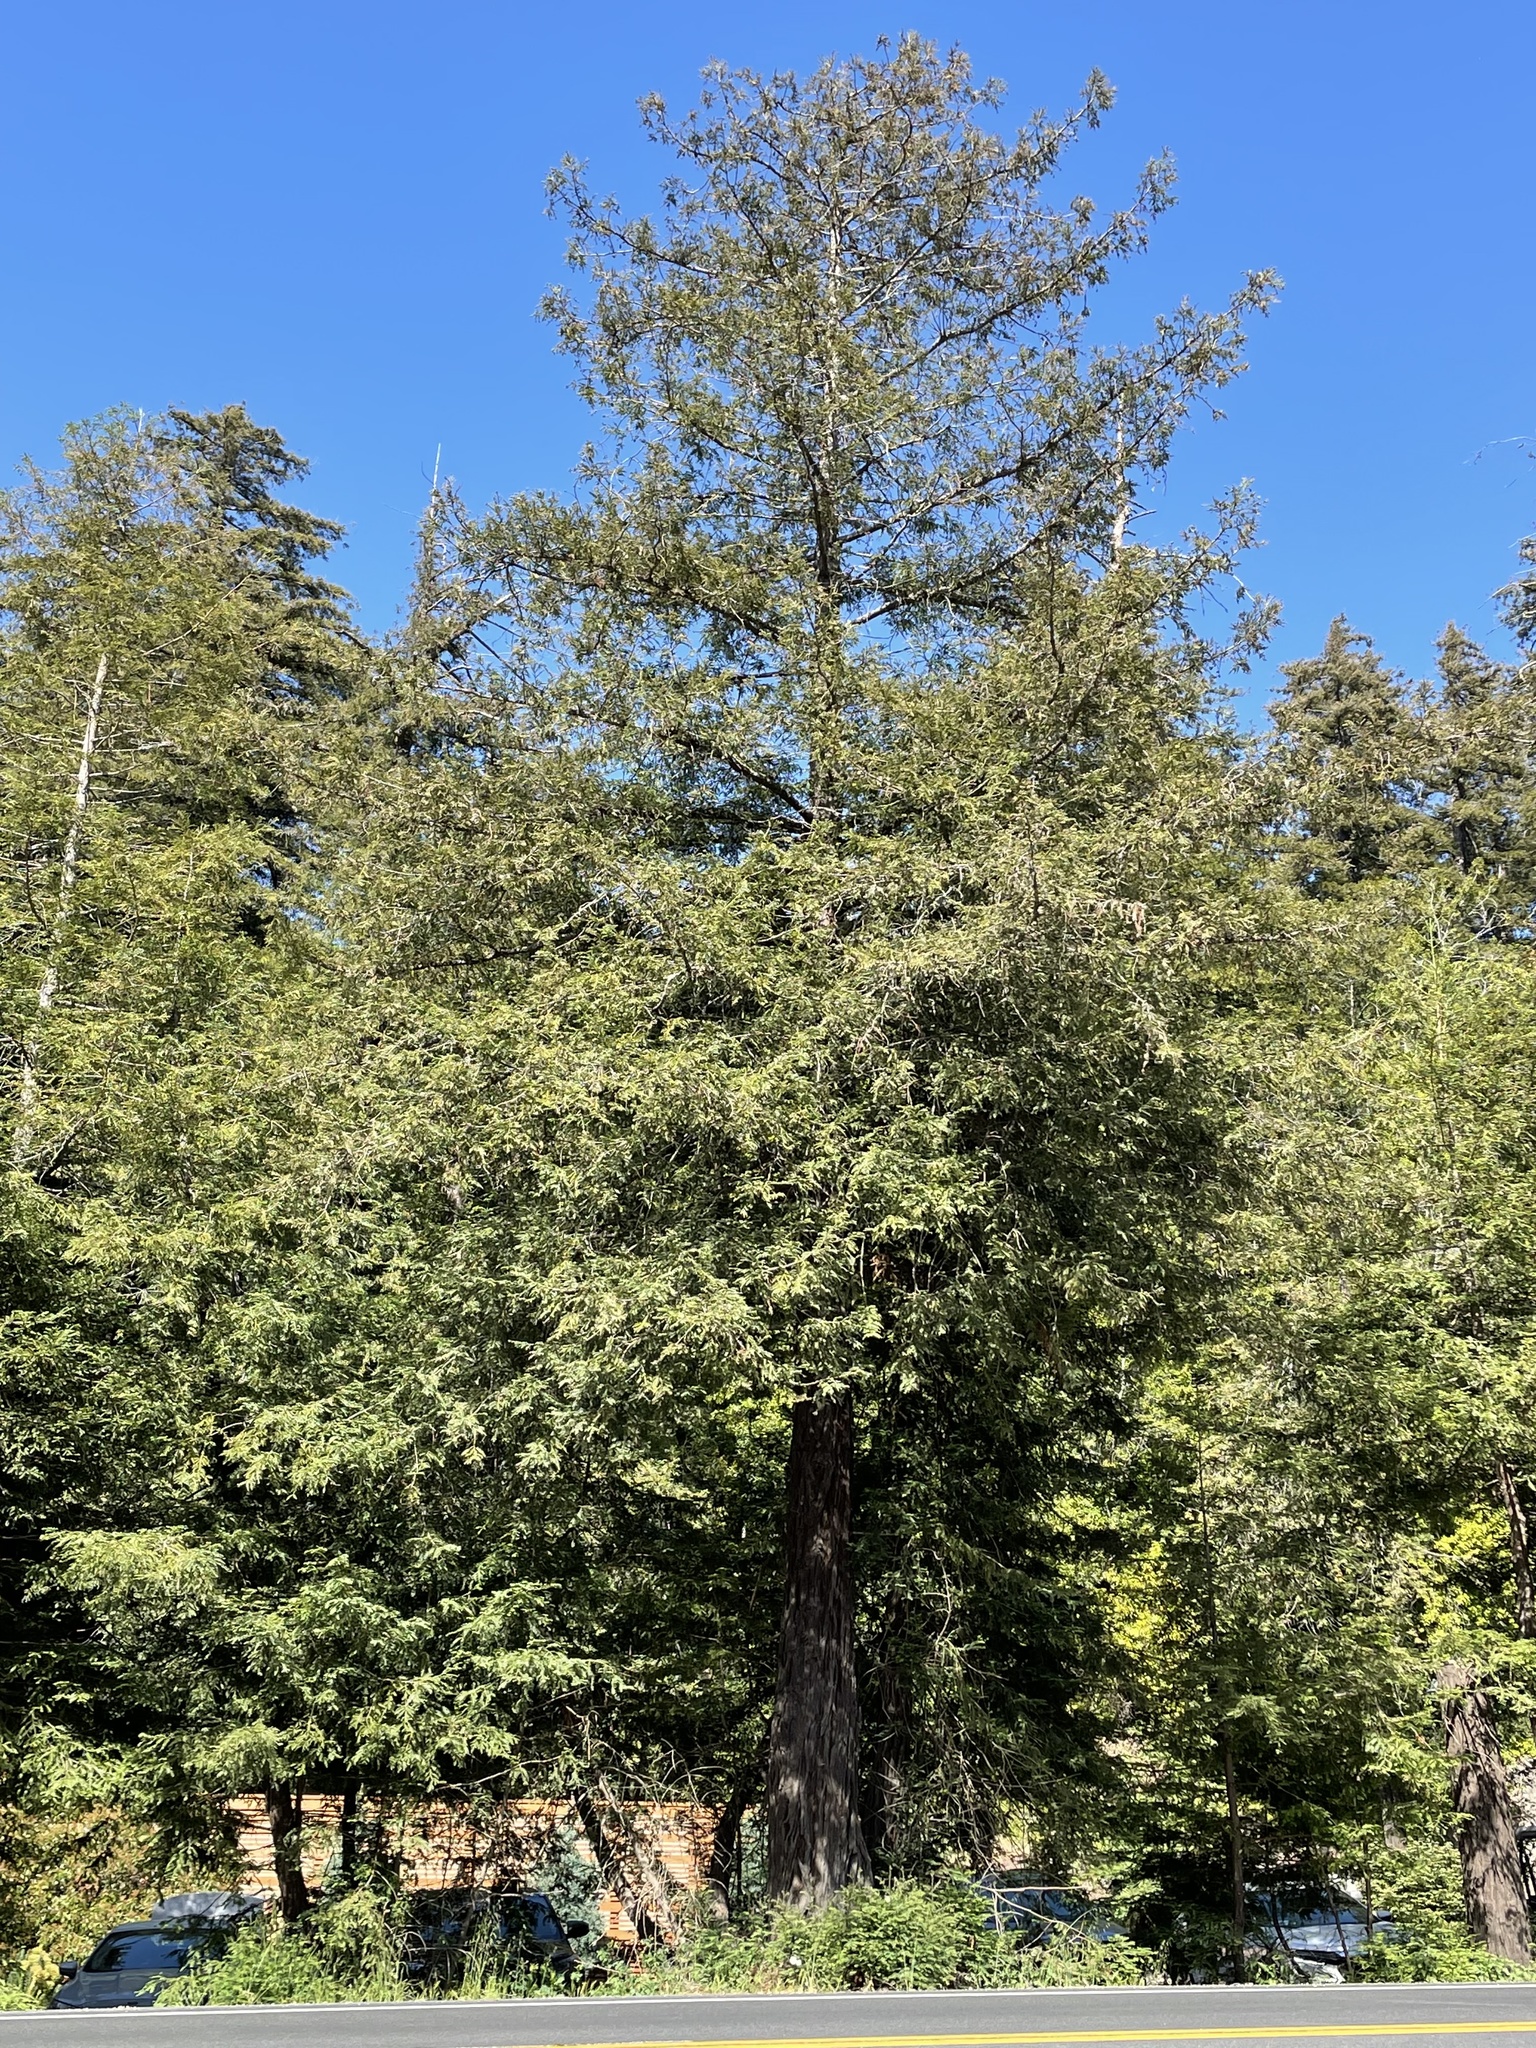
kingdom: Plantae
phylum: Tracheophyta
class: Pinopsida
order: Pinales
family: Cupressaceae
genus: Sequoia
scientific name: Sequoia sempervirens
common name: Coast redwood
